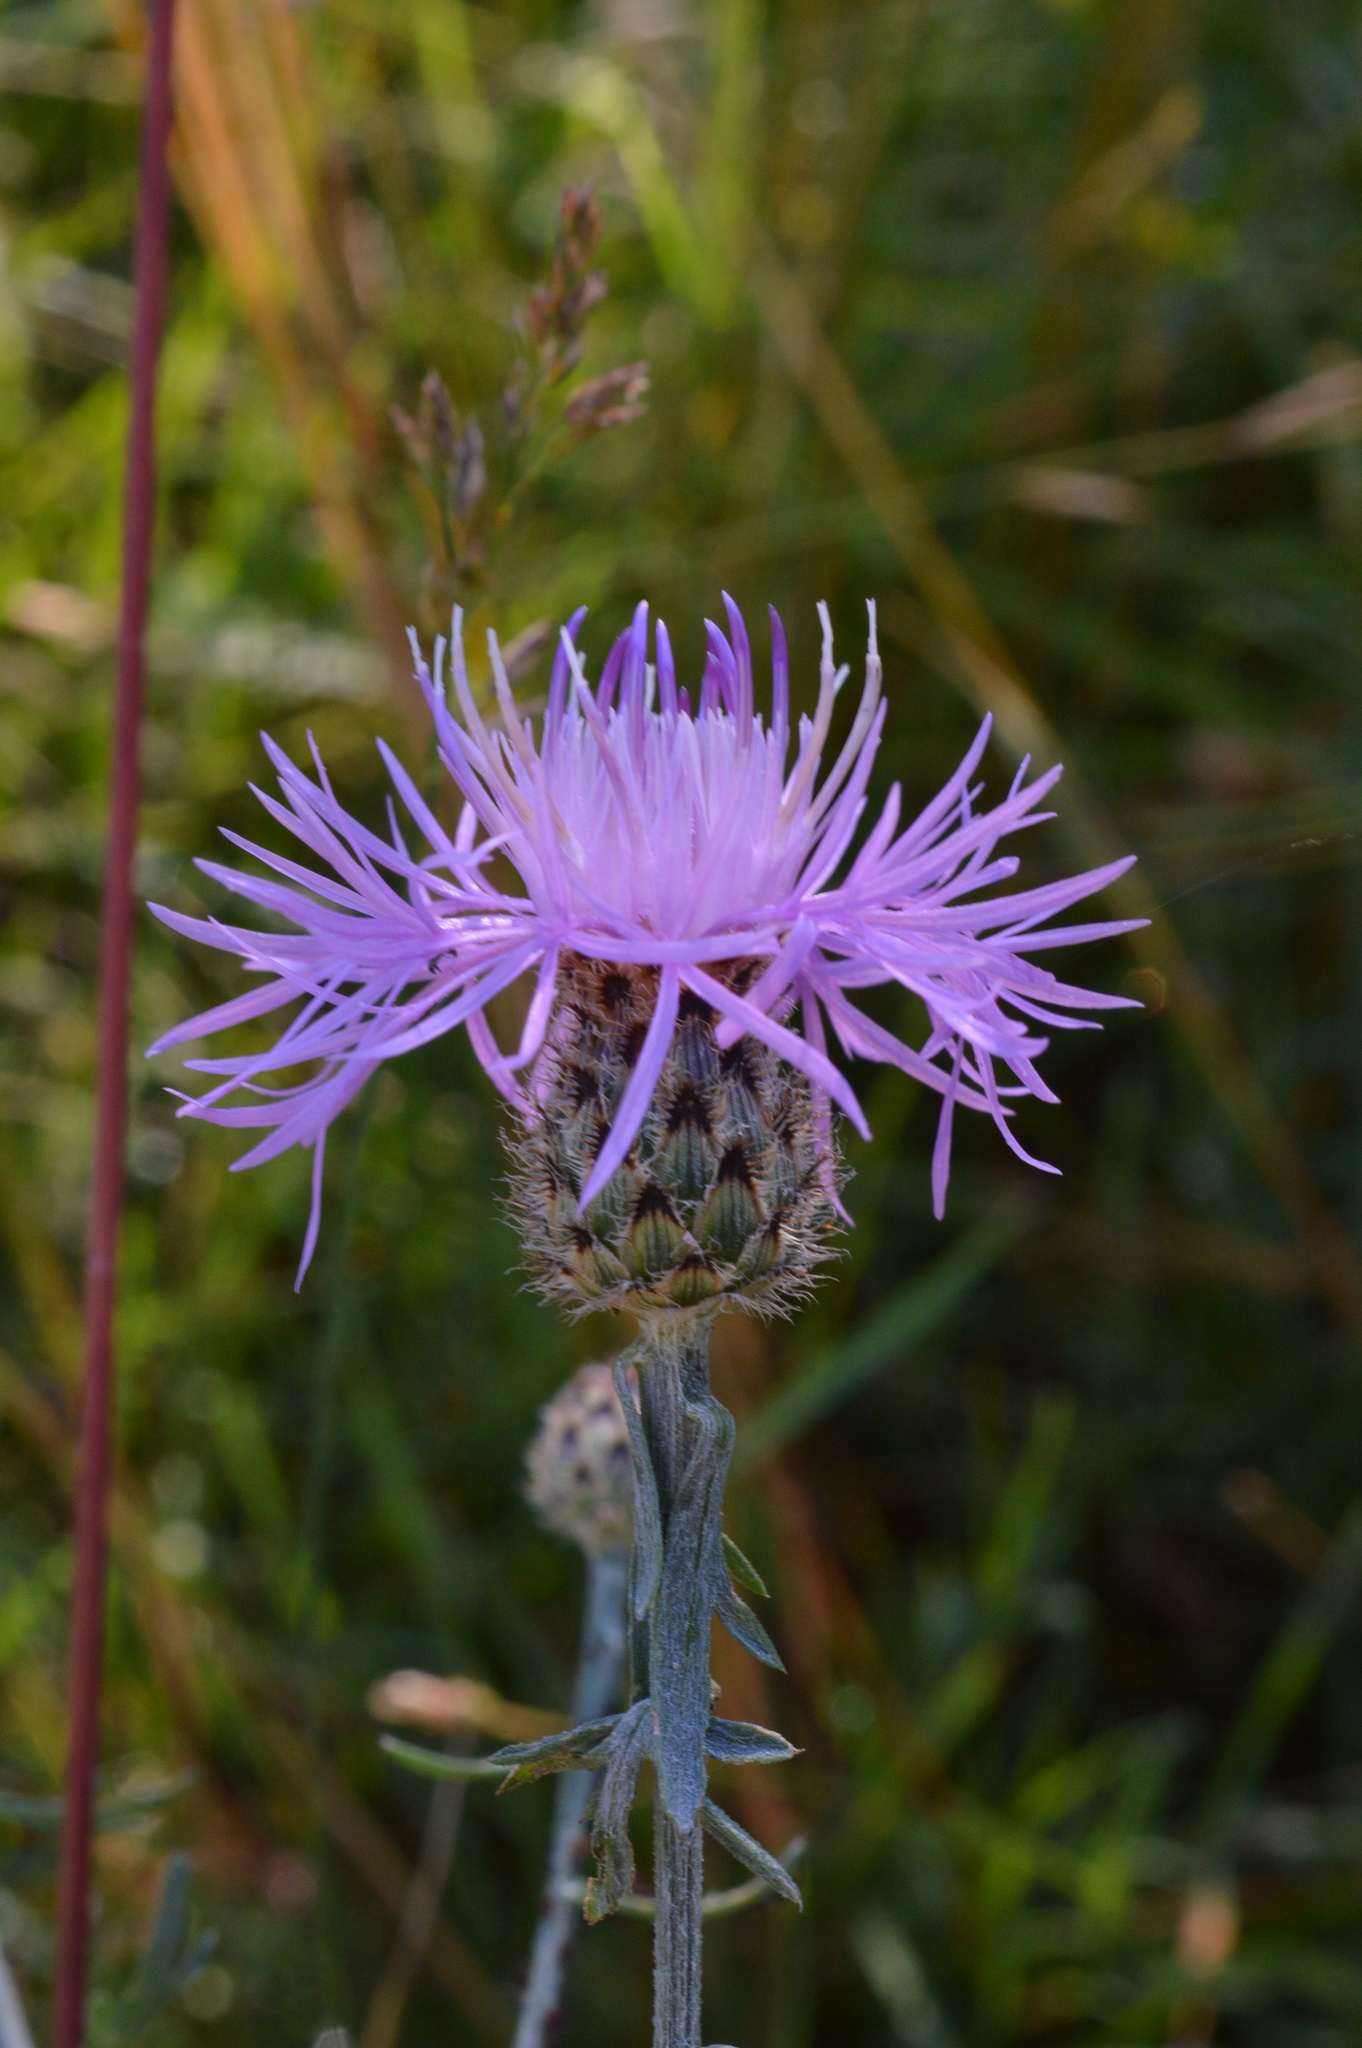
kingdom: Plantae
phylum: Tracheophyta
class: Magnoliopsida
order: Asterales
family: Asteraceae
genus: Centaurea
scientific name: Centaurea stoebe
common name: Spotted knapweed
